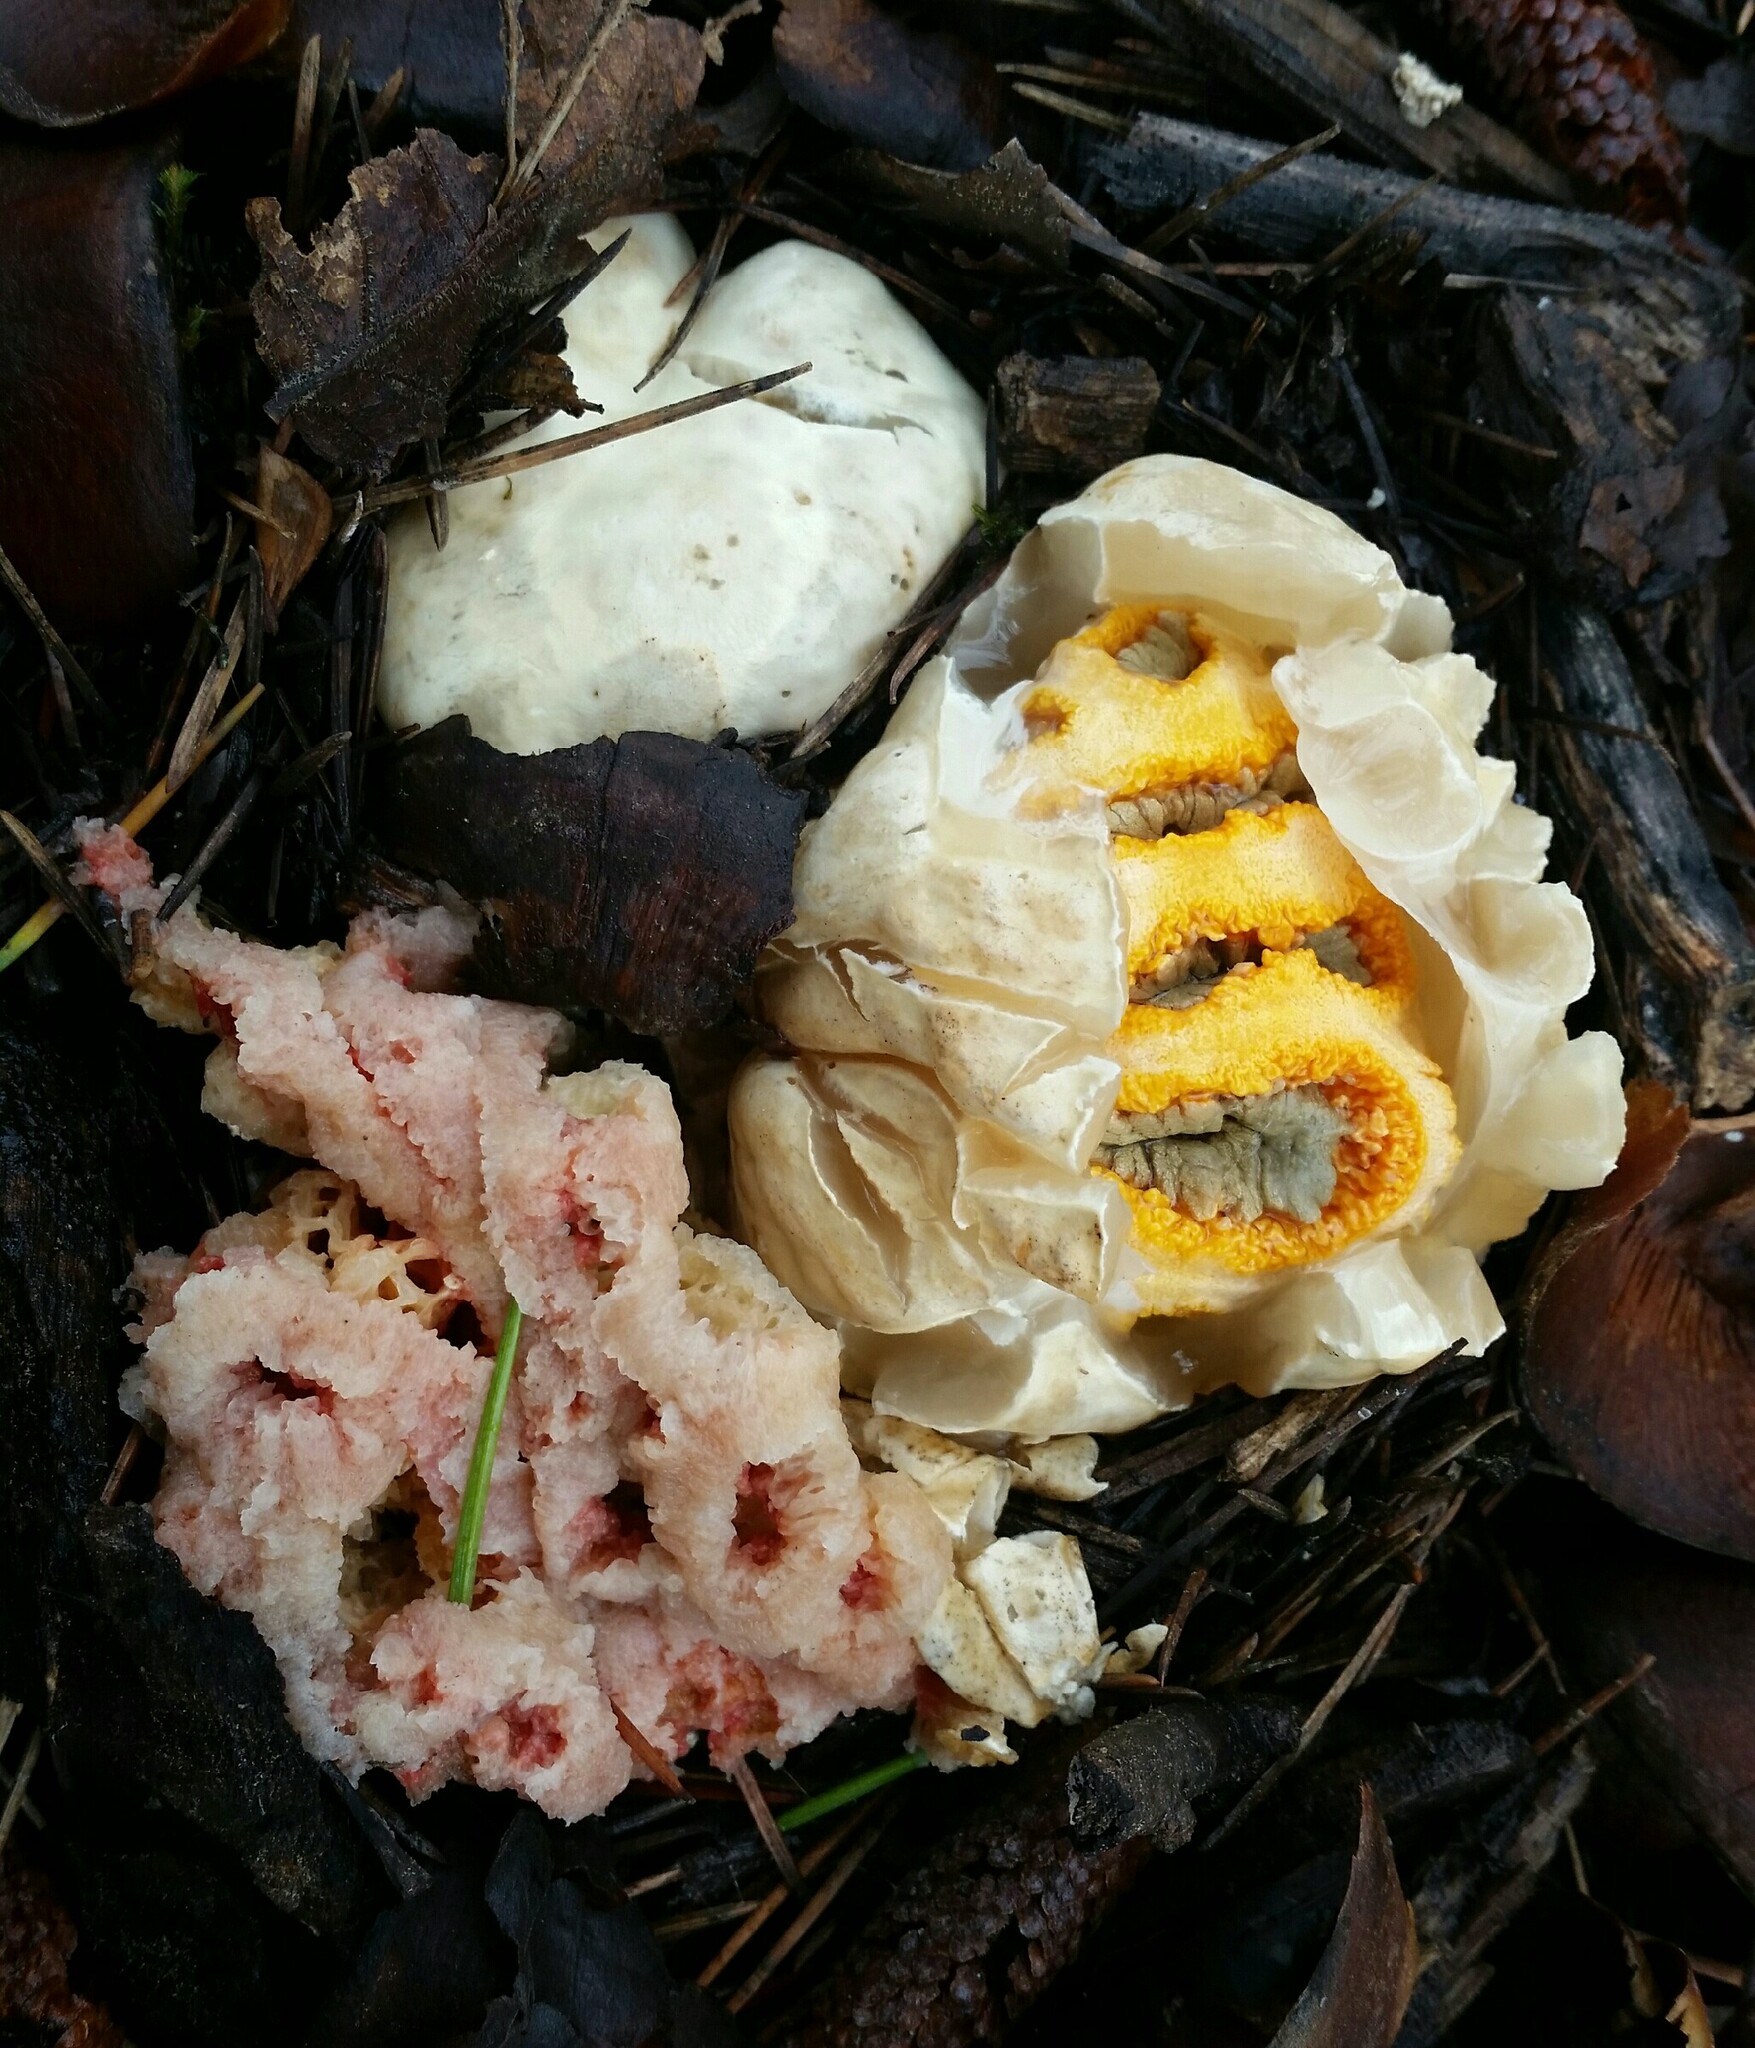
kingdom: Fungi
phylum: Basidiomycota
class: Agaricomycetes
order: Phallales
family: Phallaceae
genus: Clathrus
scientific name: Clathrus ruber
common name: Red cage
